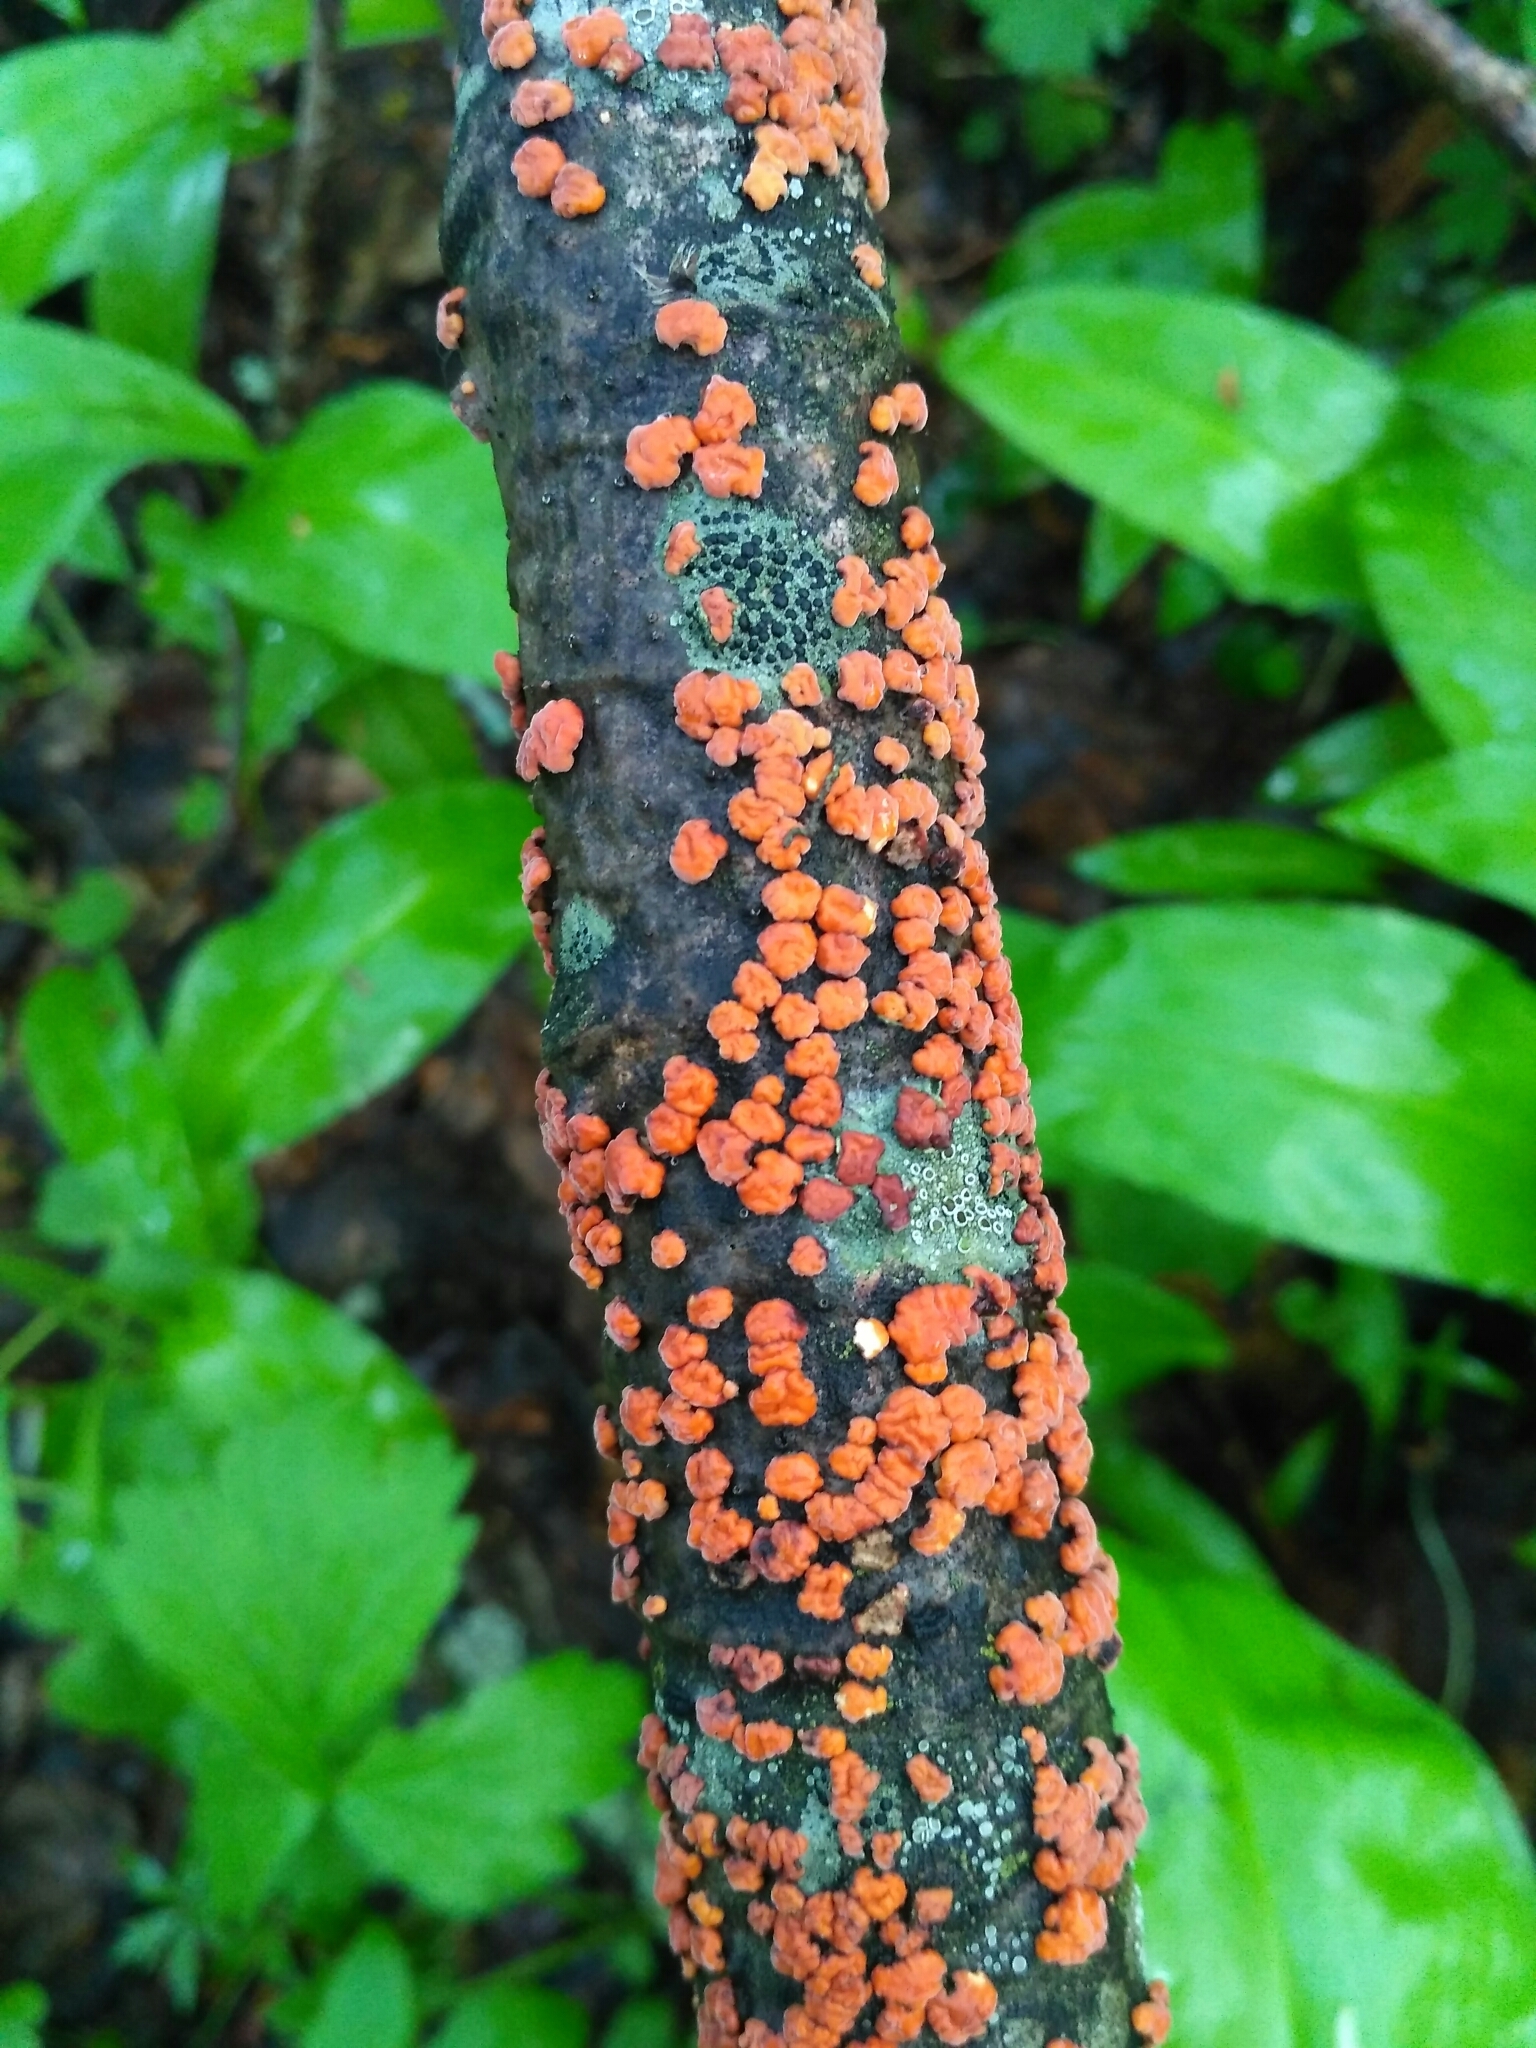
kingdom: Fungi
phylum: Basidiomycota
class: Agaricomycetes
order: Russulales
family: Peniophoraceae
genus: Peniophora
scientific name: Peniophora rufa
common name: Red tree brain fungus
